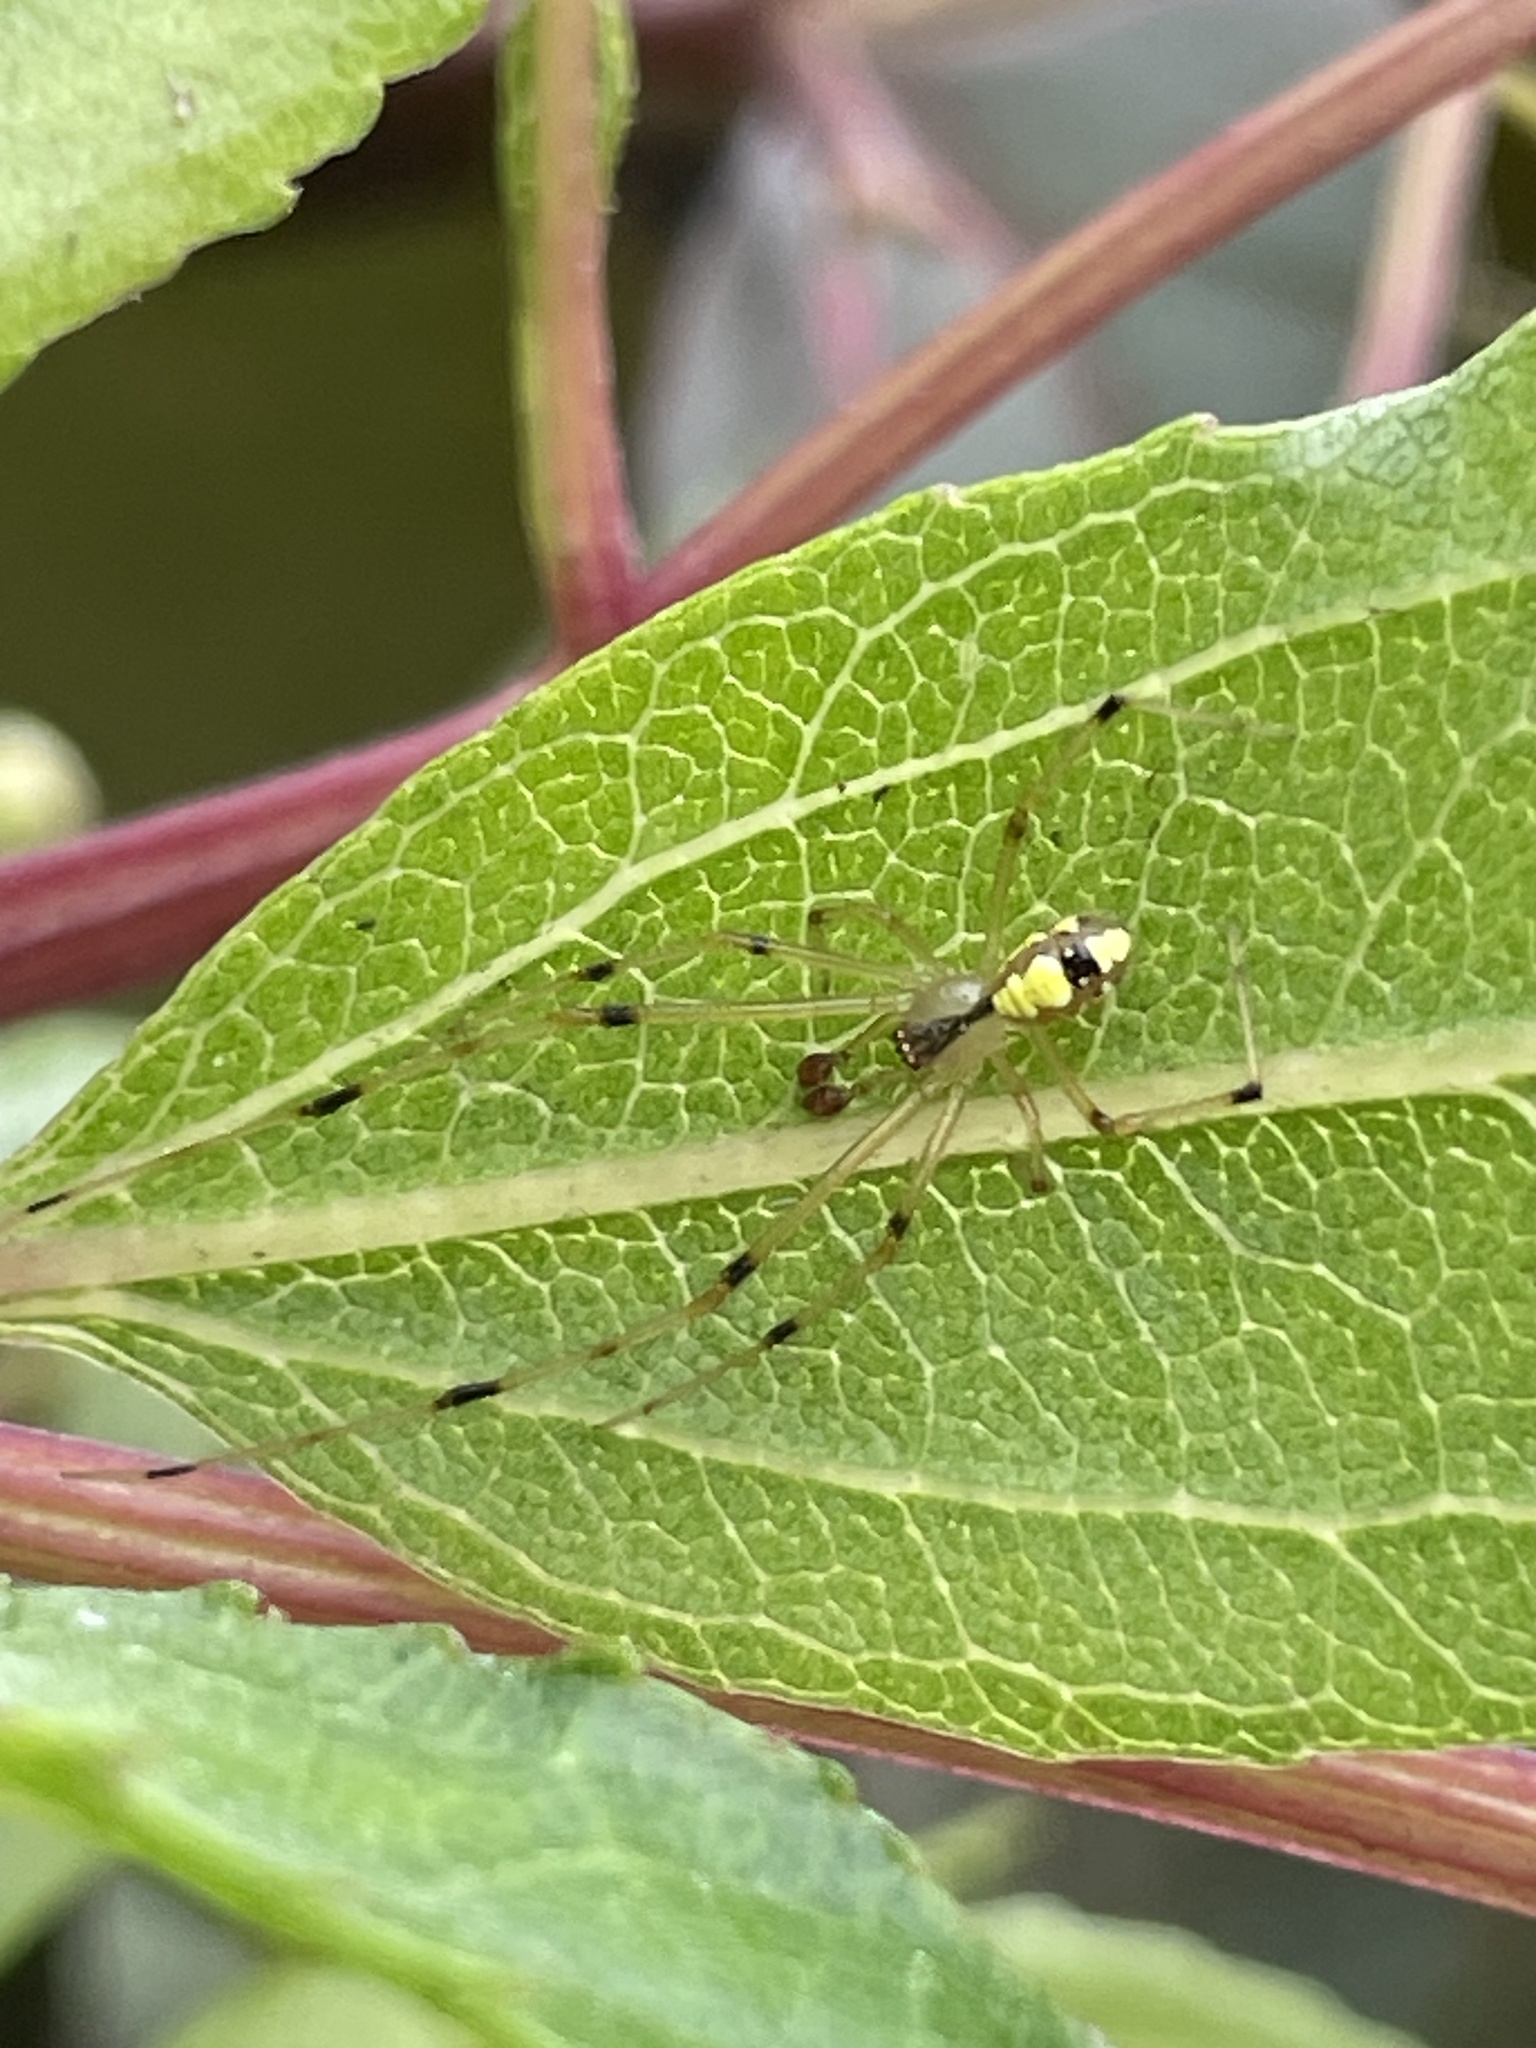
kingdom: Animalia
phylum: Arthropoda
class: Arachnida
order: Araneae
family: Theridiidae
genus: Phylloneta
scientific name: Phylloneta pictipes
